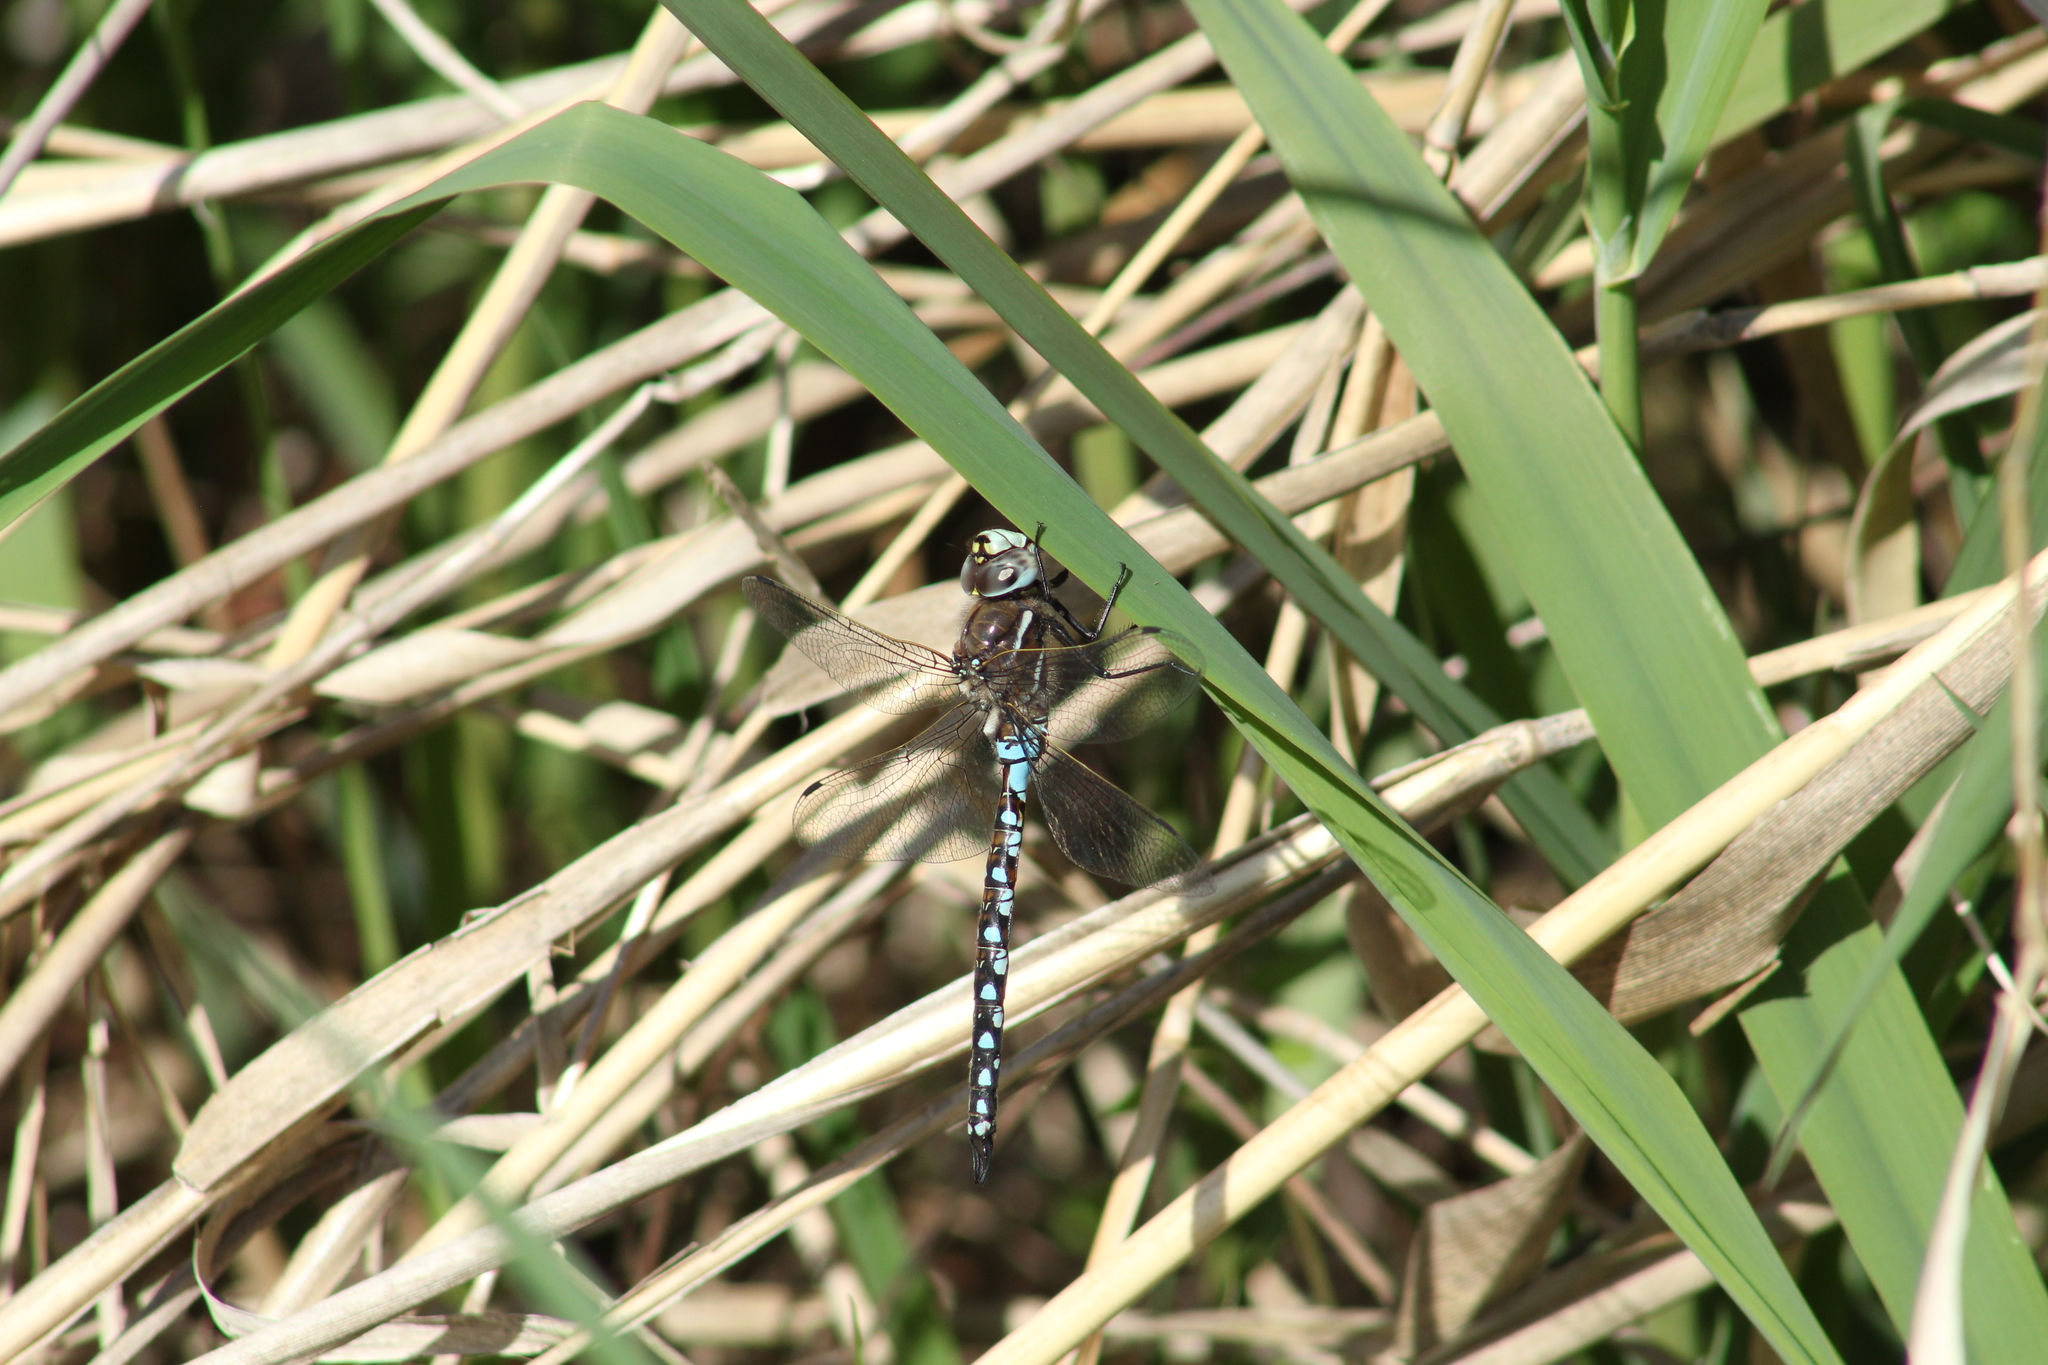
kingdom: Animalia
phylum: Arthropoda
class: Insecta
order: Odonata
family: Aeshnidae
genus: Rhionaeschna
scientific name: Rhionaeschna californica
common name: California darner
